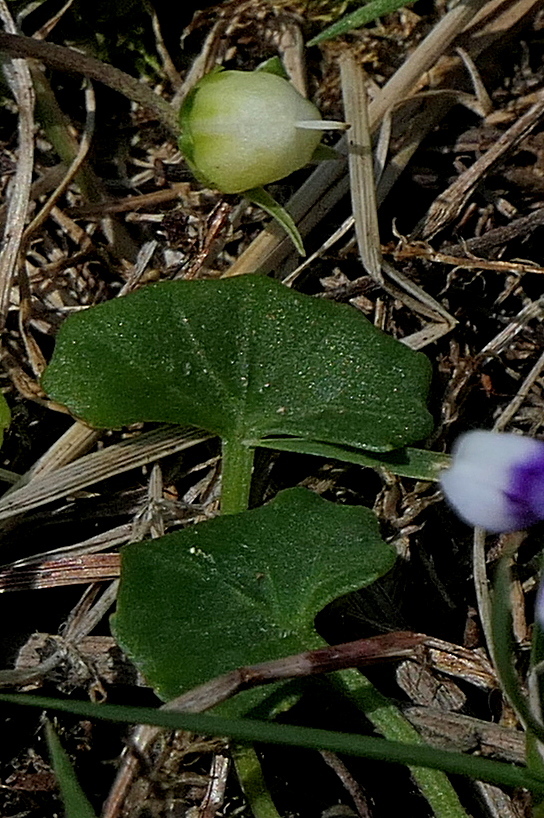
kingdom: Plantae
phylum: Tracheophyta
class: Magnoliopsida
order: Malpighiales
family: Violaceae
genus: Viola
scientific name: Viola banksii
